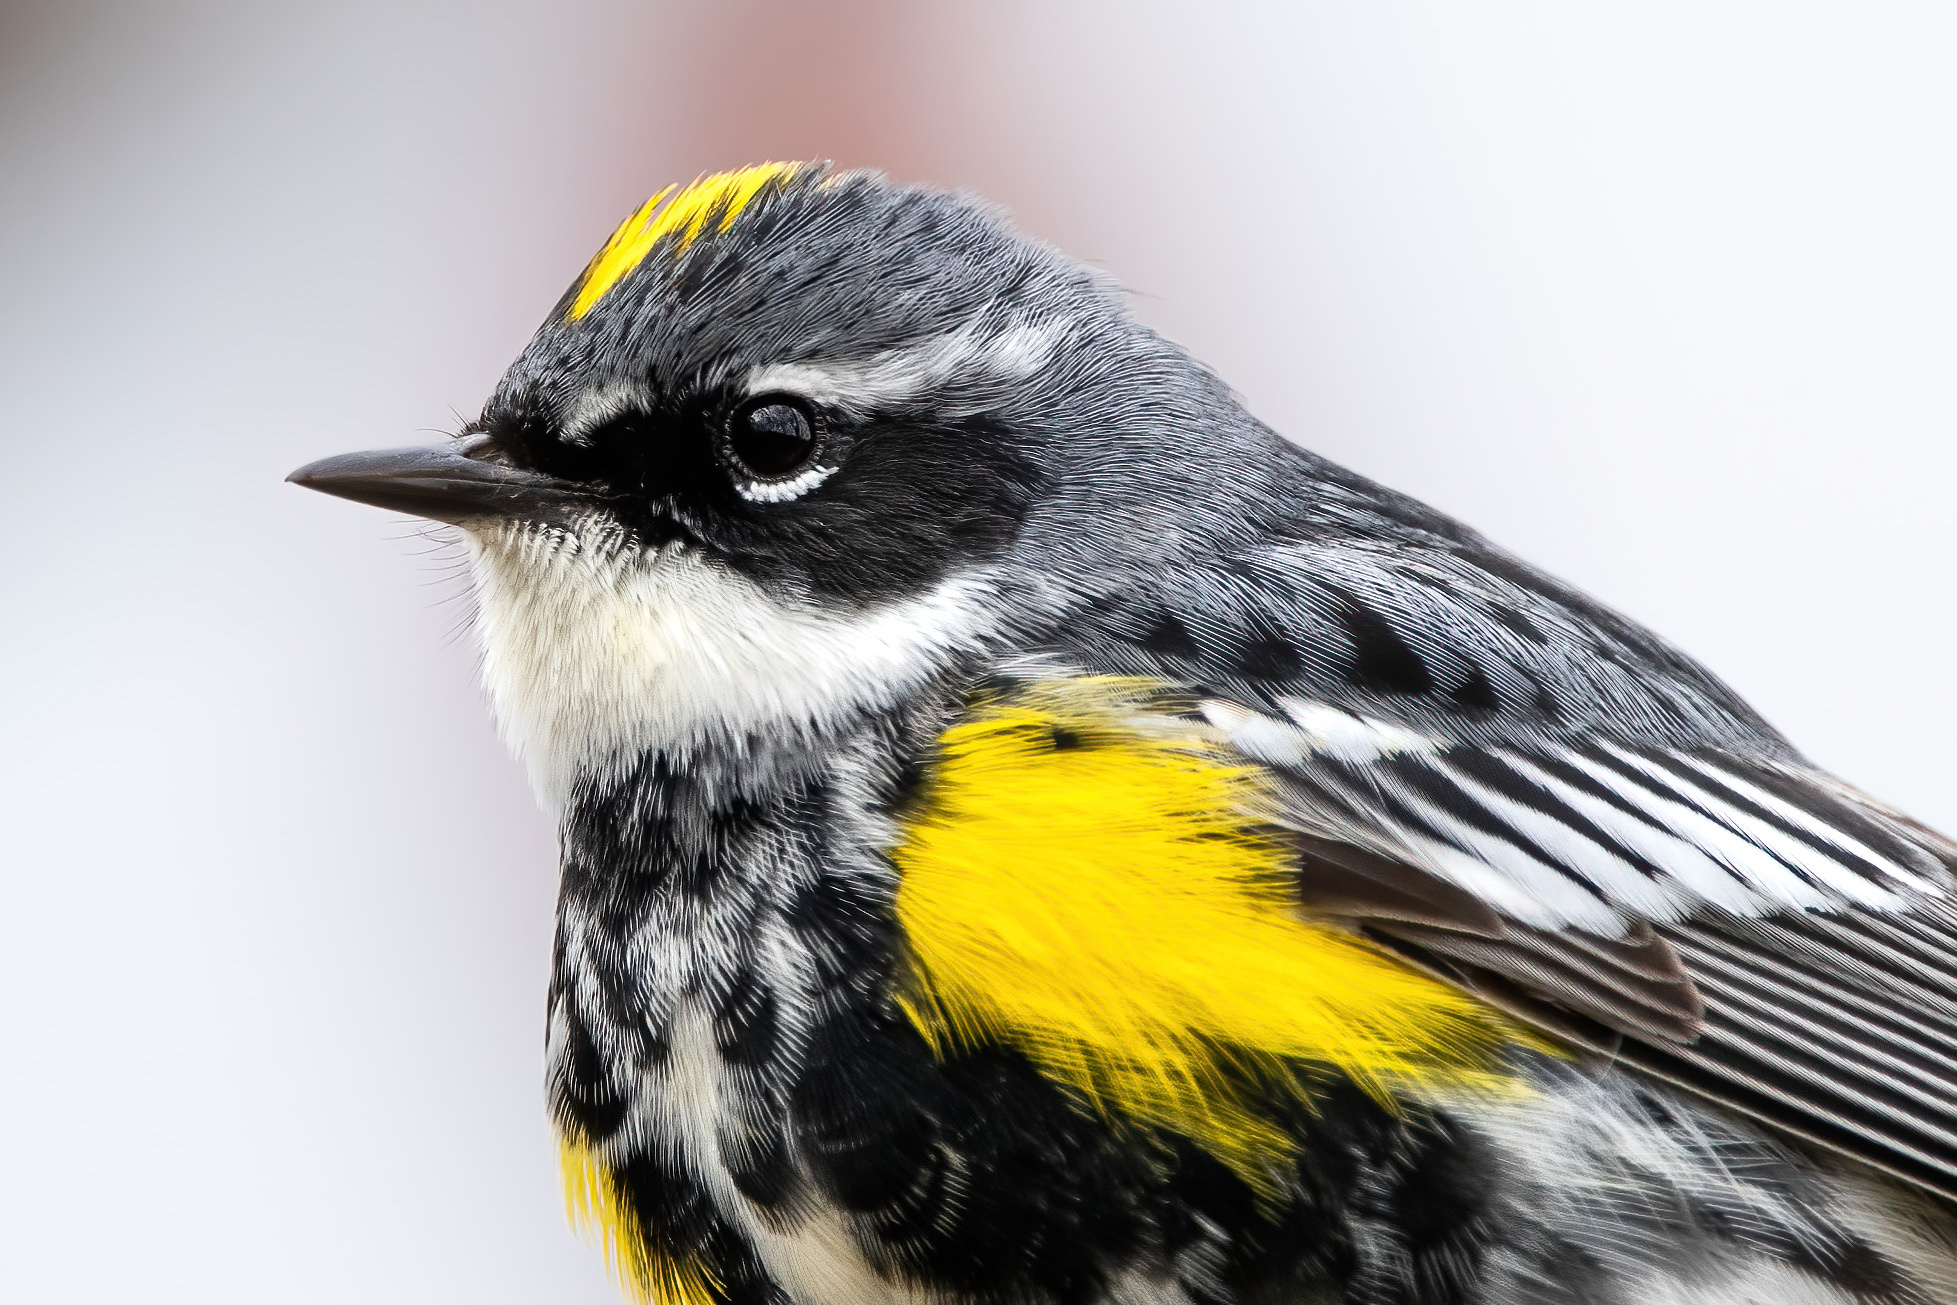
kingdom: Animalia
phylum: Chordata
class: Aves
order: Passeriformes
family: Parulidae
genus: Setophaga
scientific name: Setophaga coronata
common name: Myrtle warbler
